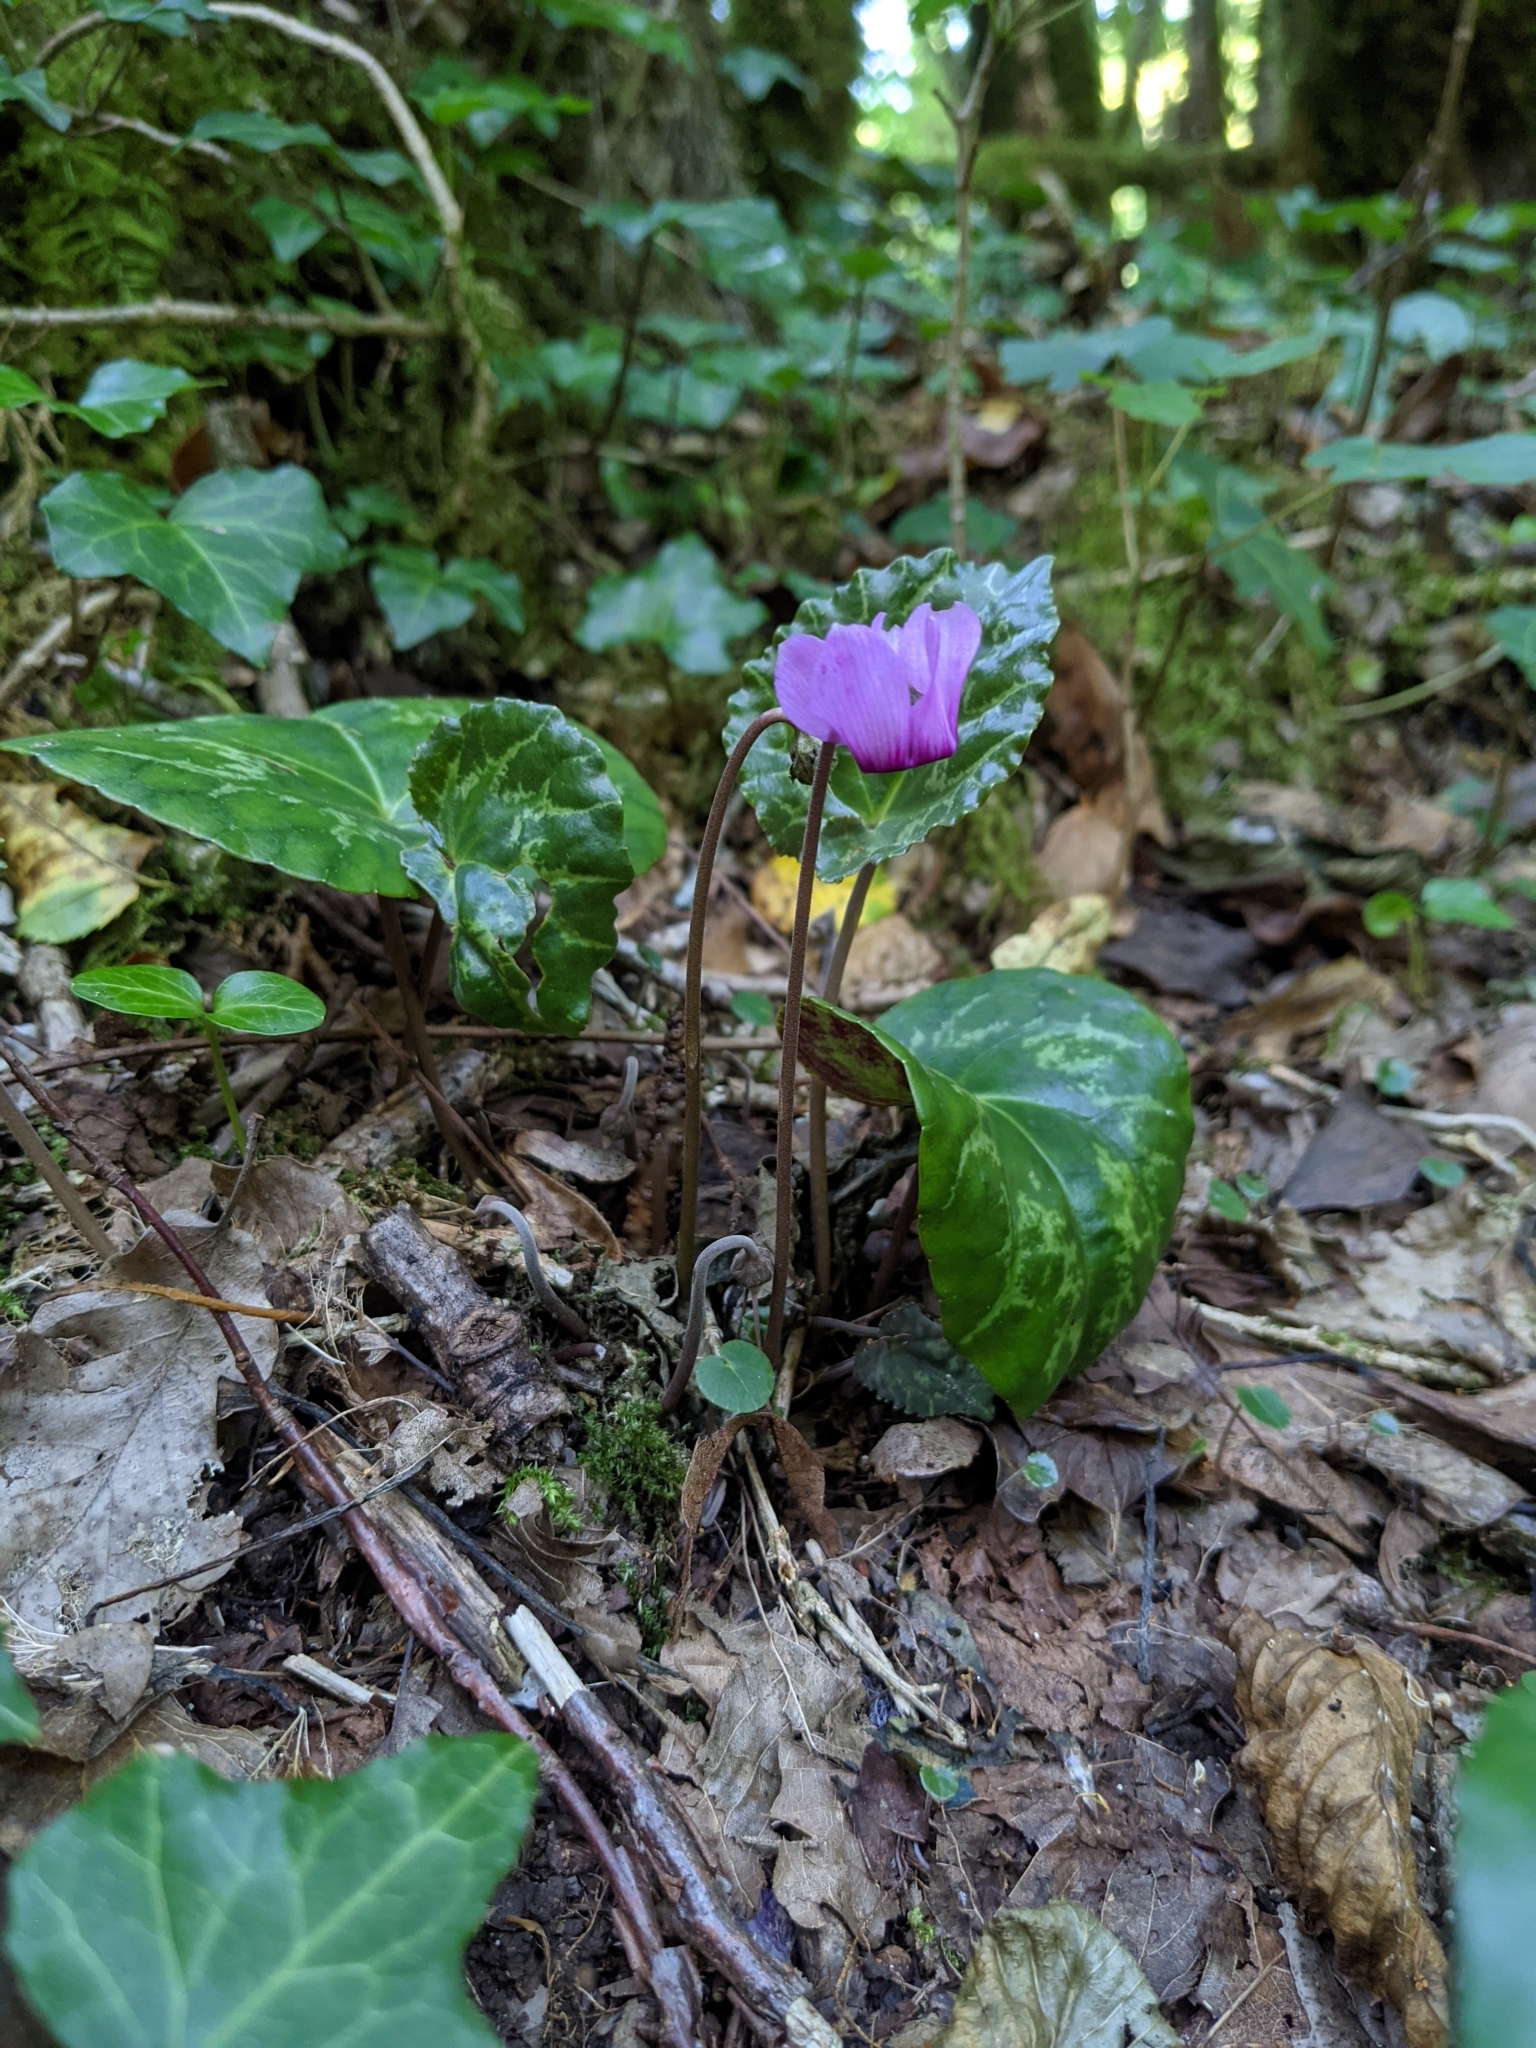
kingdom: Plantae
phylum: Tracheophyta
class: Magnoliopsida
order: Ericales
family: Primulaceae
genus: Cyclamen
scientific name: Cyclamen purpurascens
